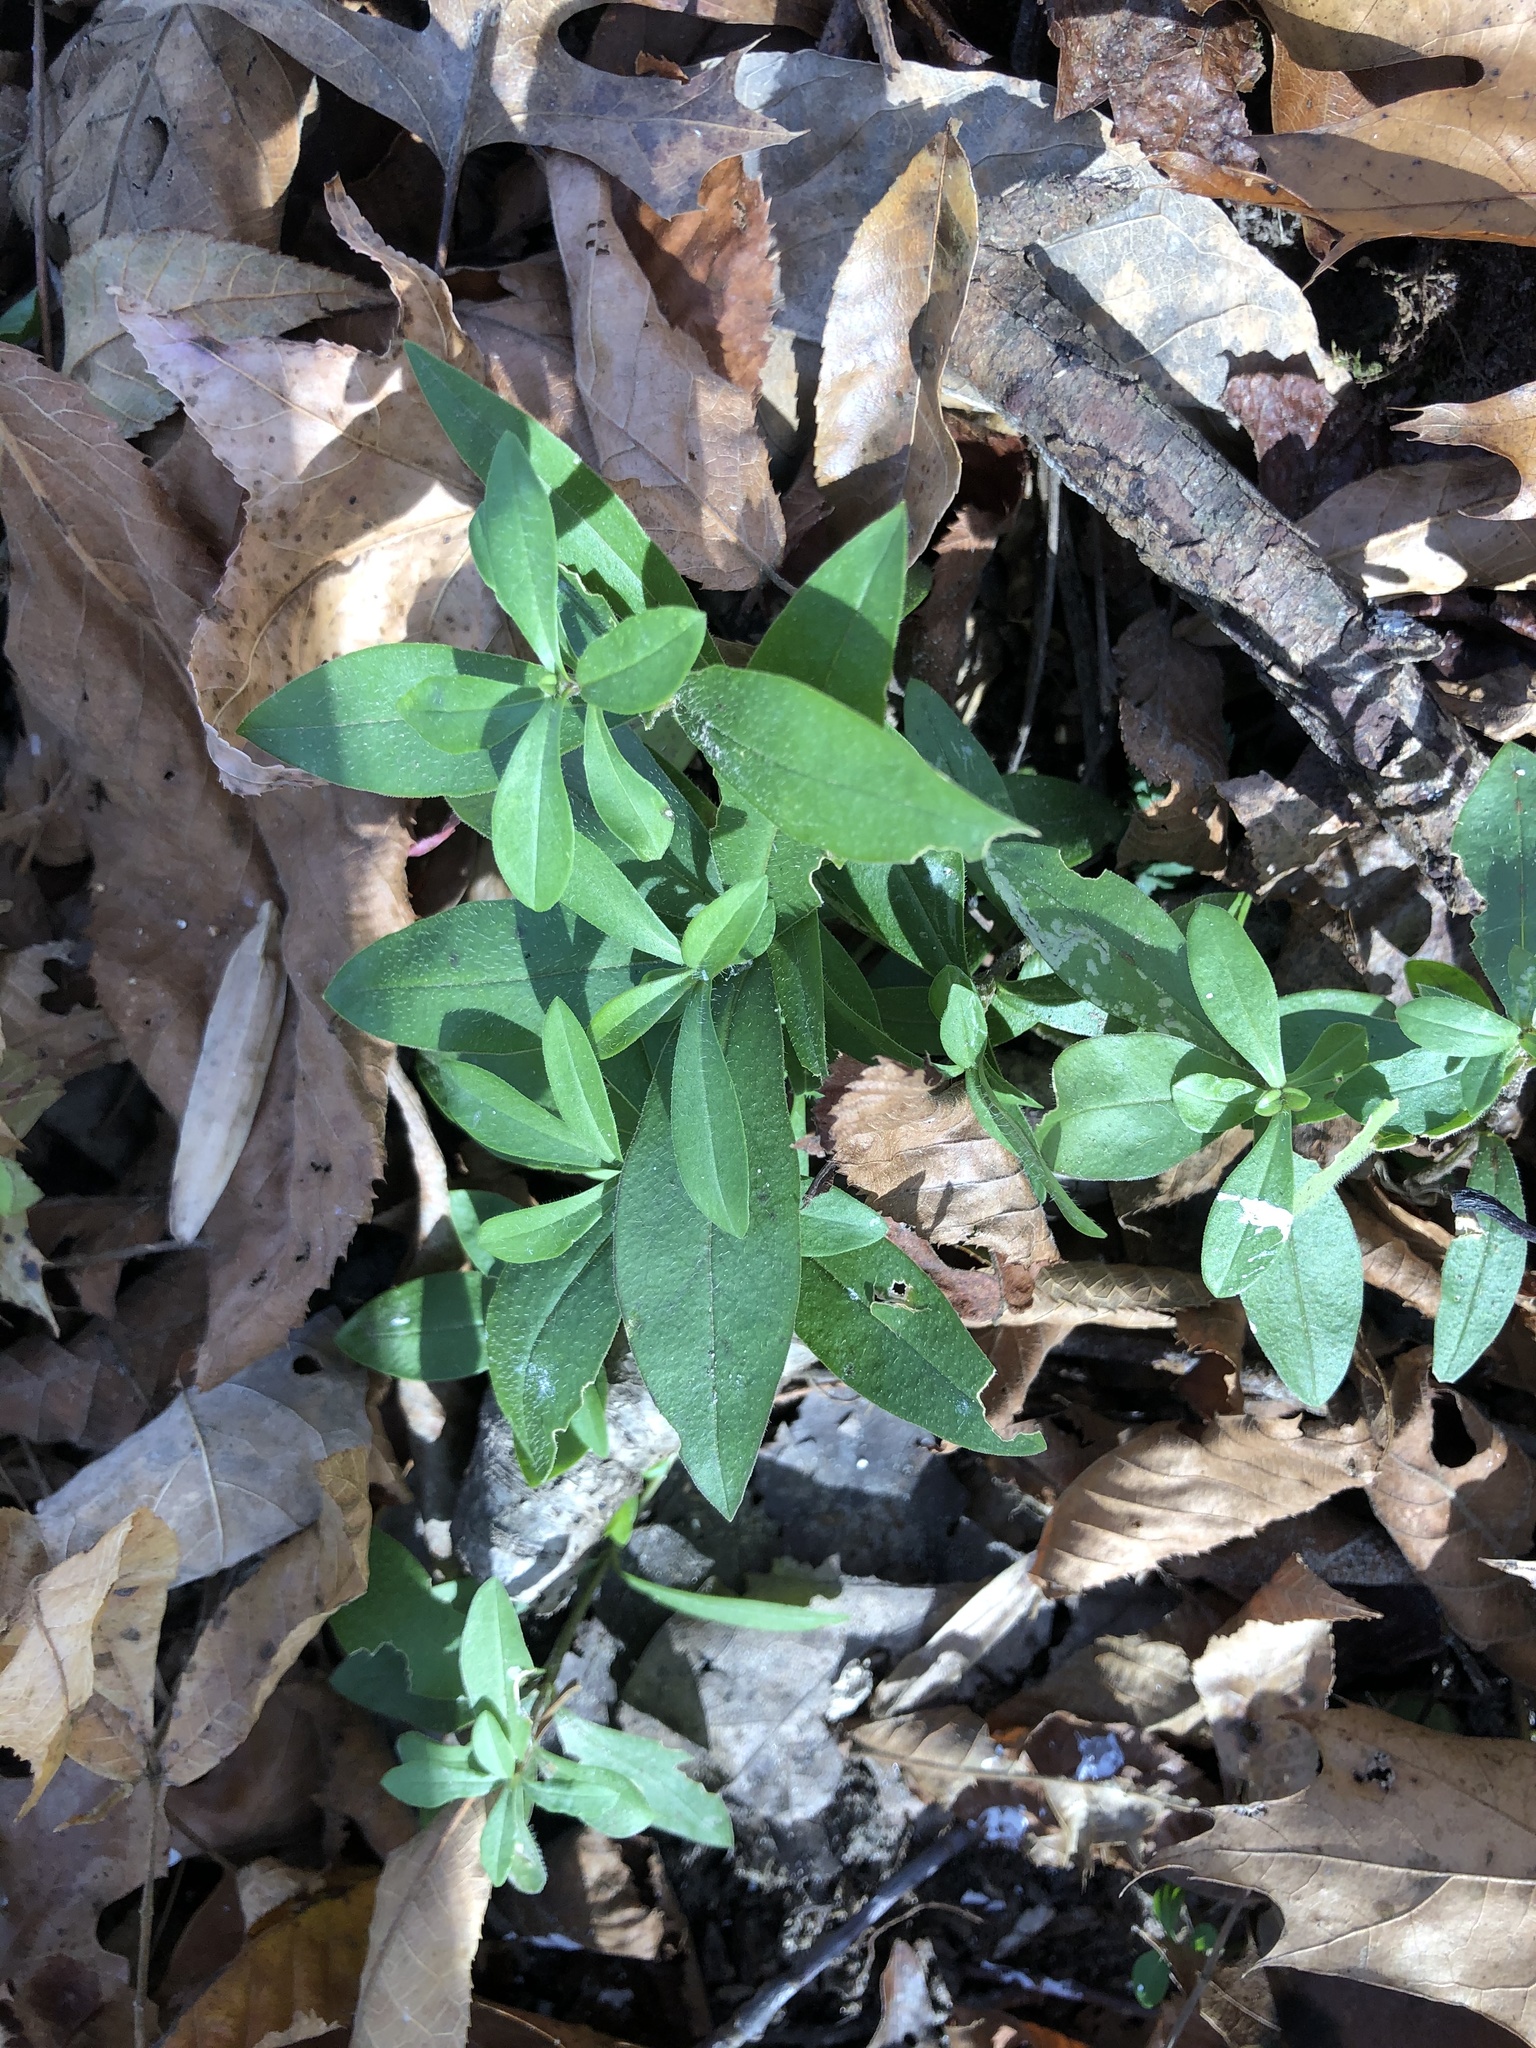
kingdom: Plantae
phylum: Tracheophyta
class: Magnoliopsida
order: Ericales
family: Polemoniaceae
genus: Phlox
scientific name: Phlox divaricata
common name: Blue phlox
